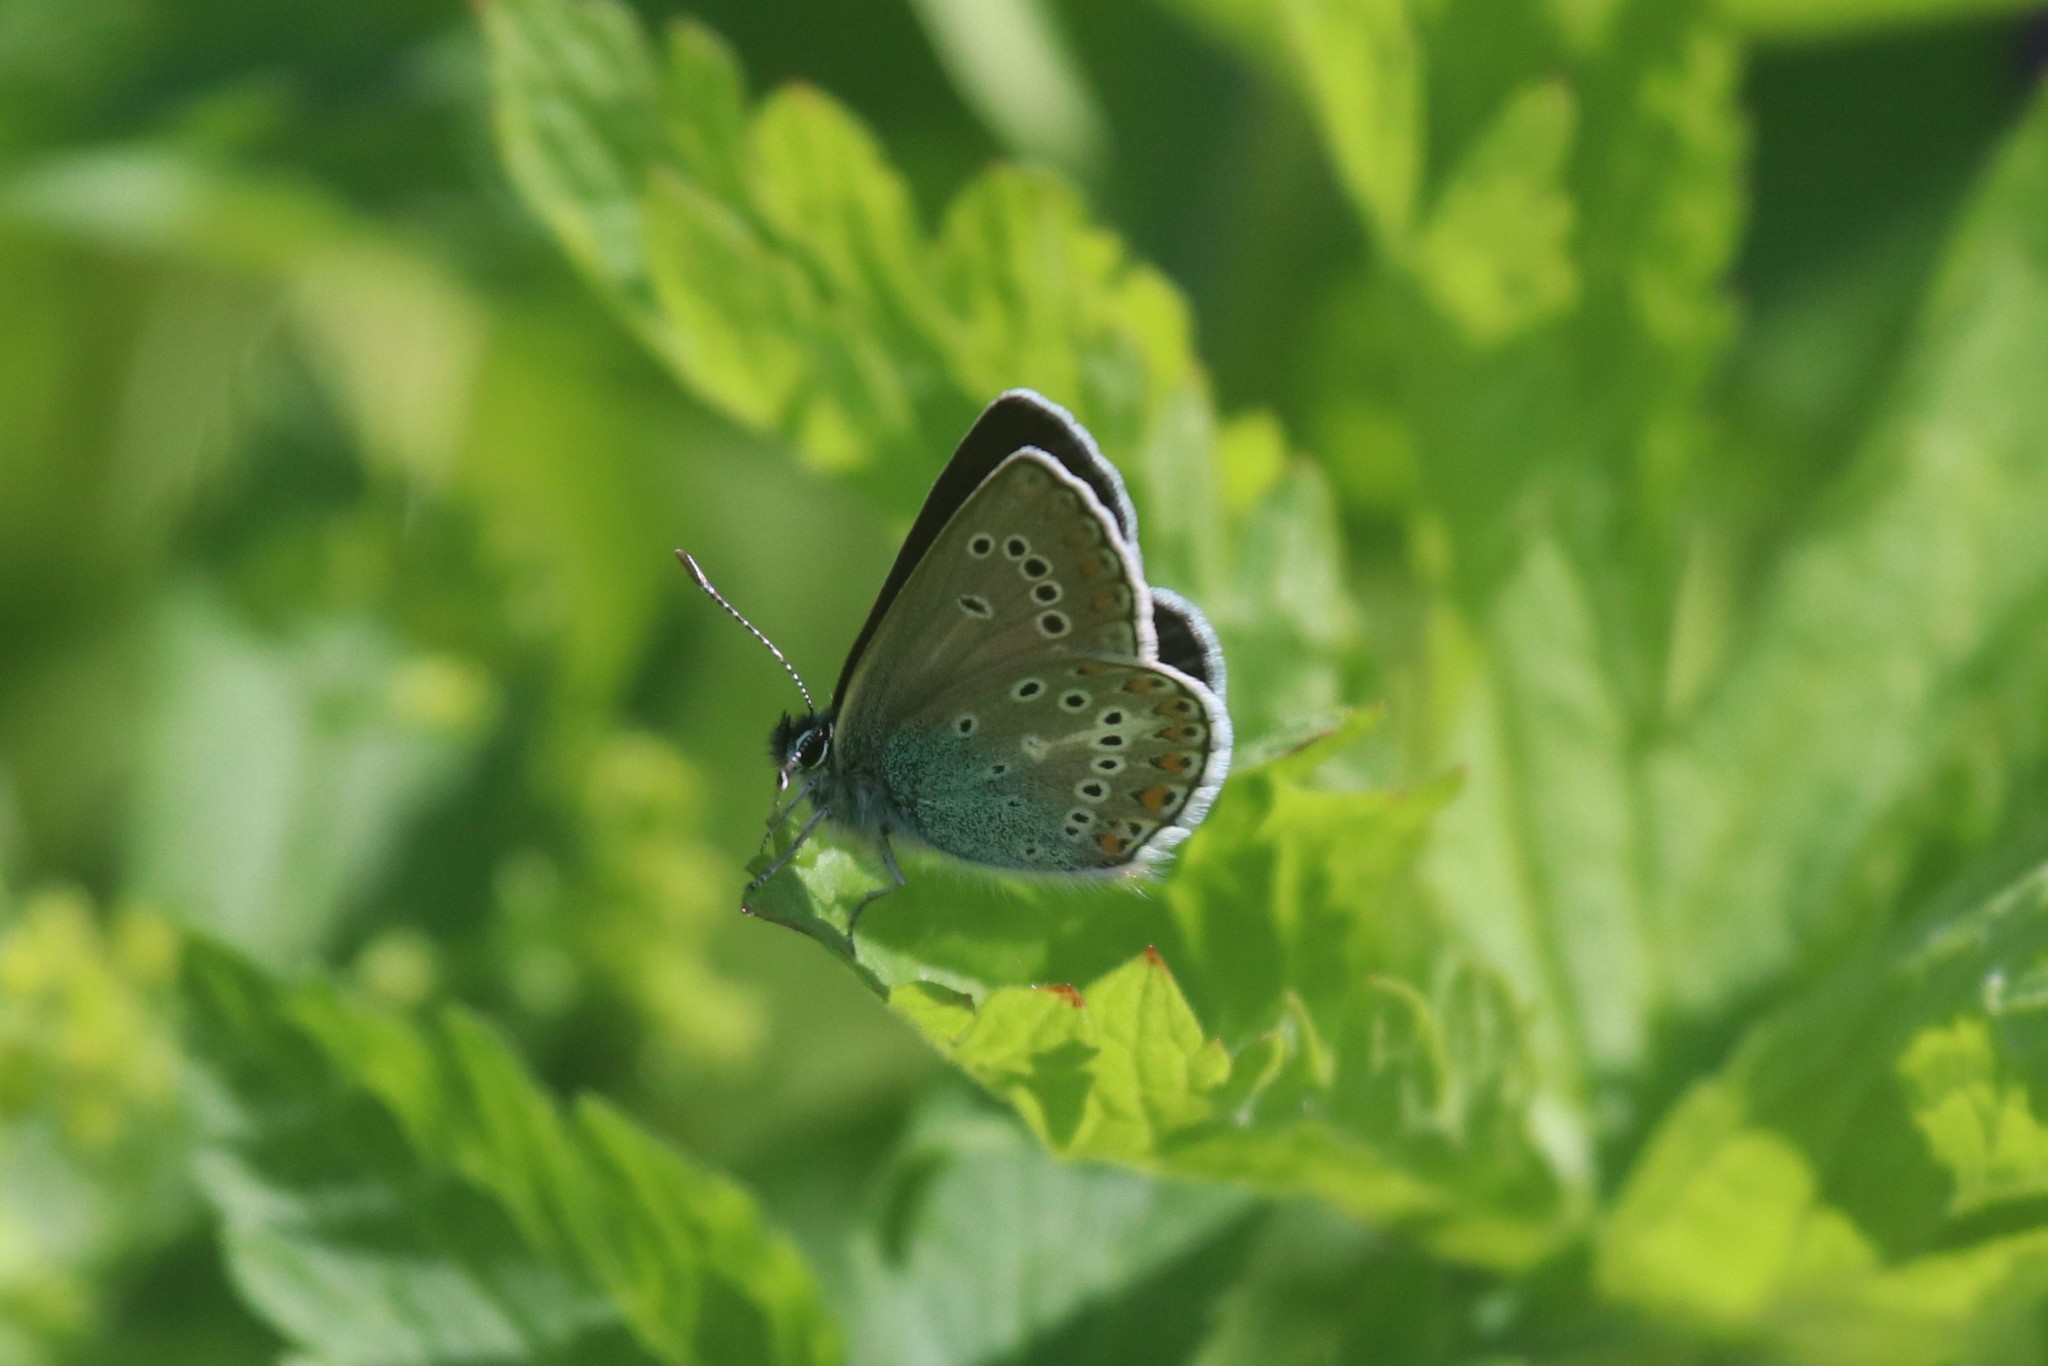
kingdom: Animalia
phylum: Arthropoda
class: Insecta
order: Lepidoptera
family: Lycaenidae
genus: Eumedonia
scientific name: Eumedonia eumedon
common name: Geranium argus
